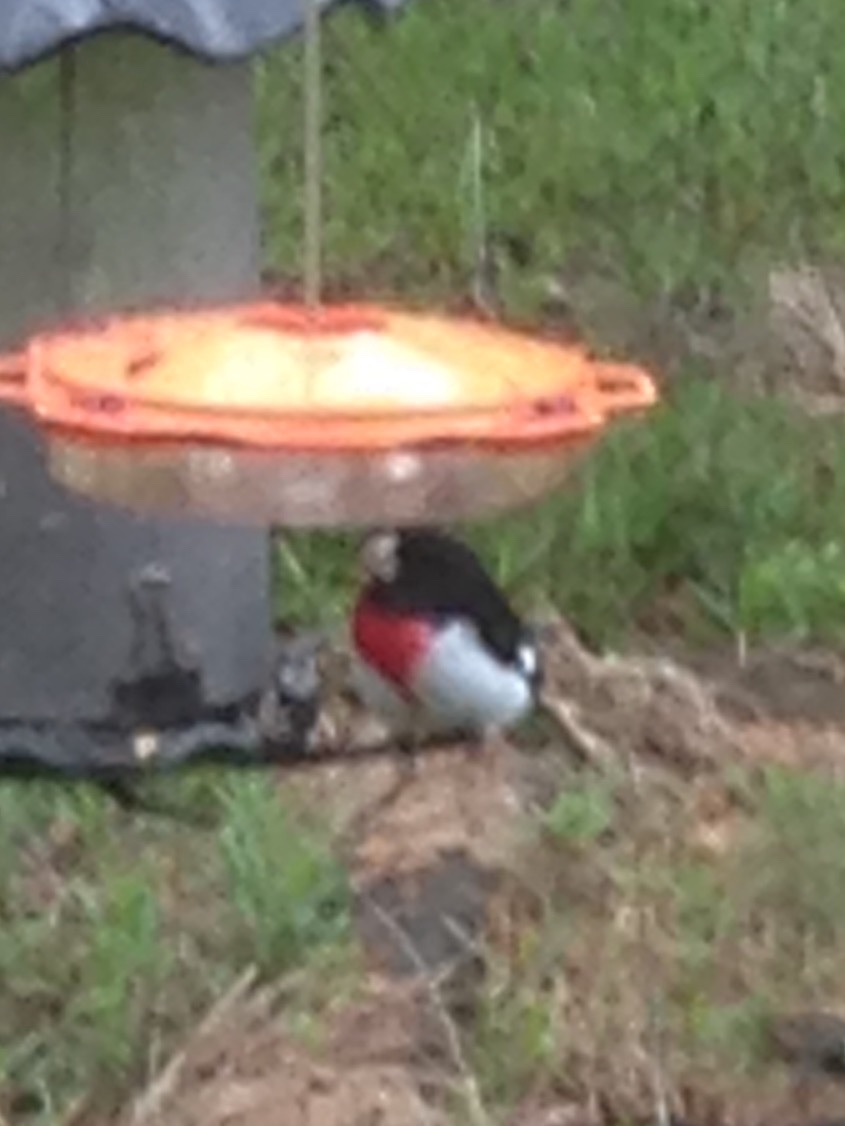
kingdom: Animalia
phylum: Chordata
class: Aves
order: Passeriformes
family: Cardinalidae
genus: Pheucticus
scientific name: Pheucticus ludovicianus
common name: Rose-breasted grosbeak
